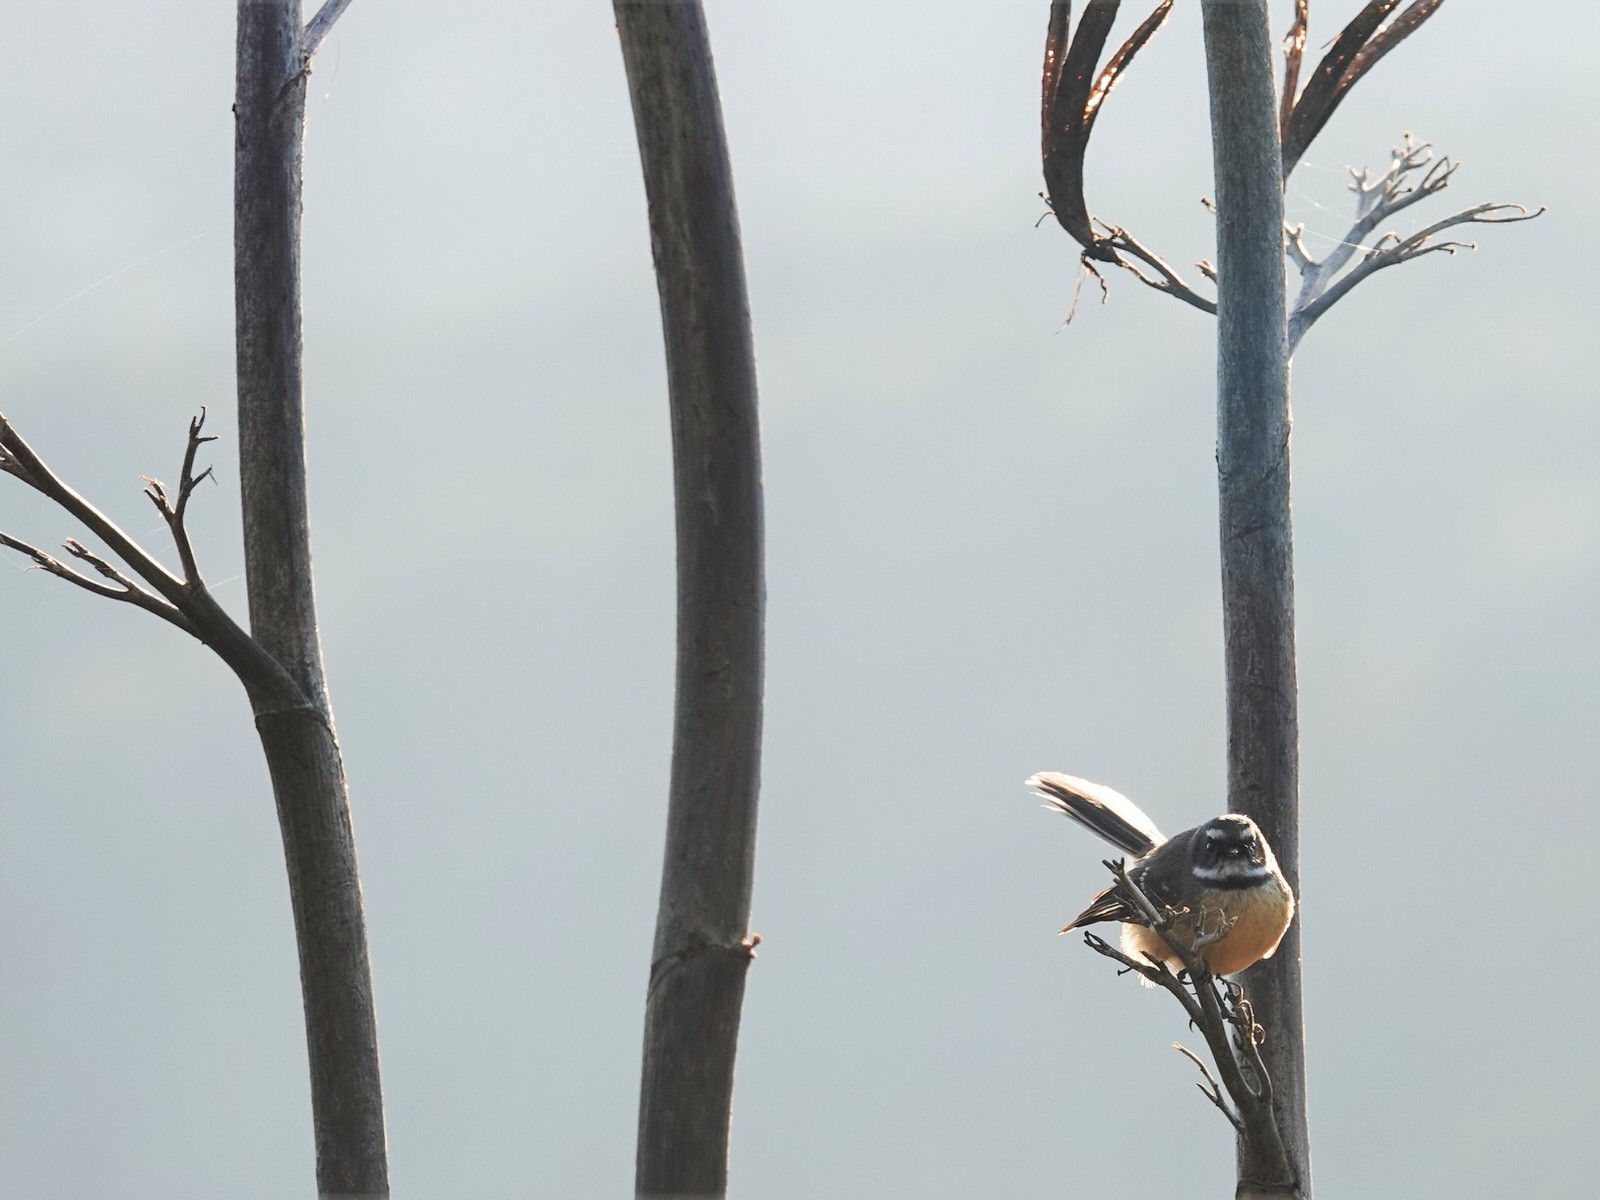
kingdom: Animalia
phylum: Chordata
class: Aves
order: Passeriformes
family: Rhipiduridae
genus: Rhipidura
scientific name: Rhipidura fuliginosa
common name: New zealand fantail
